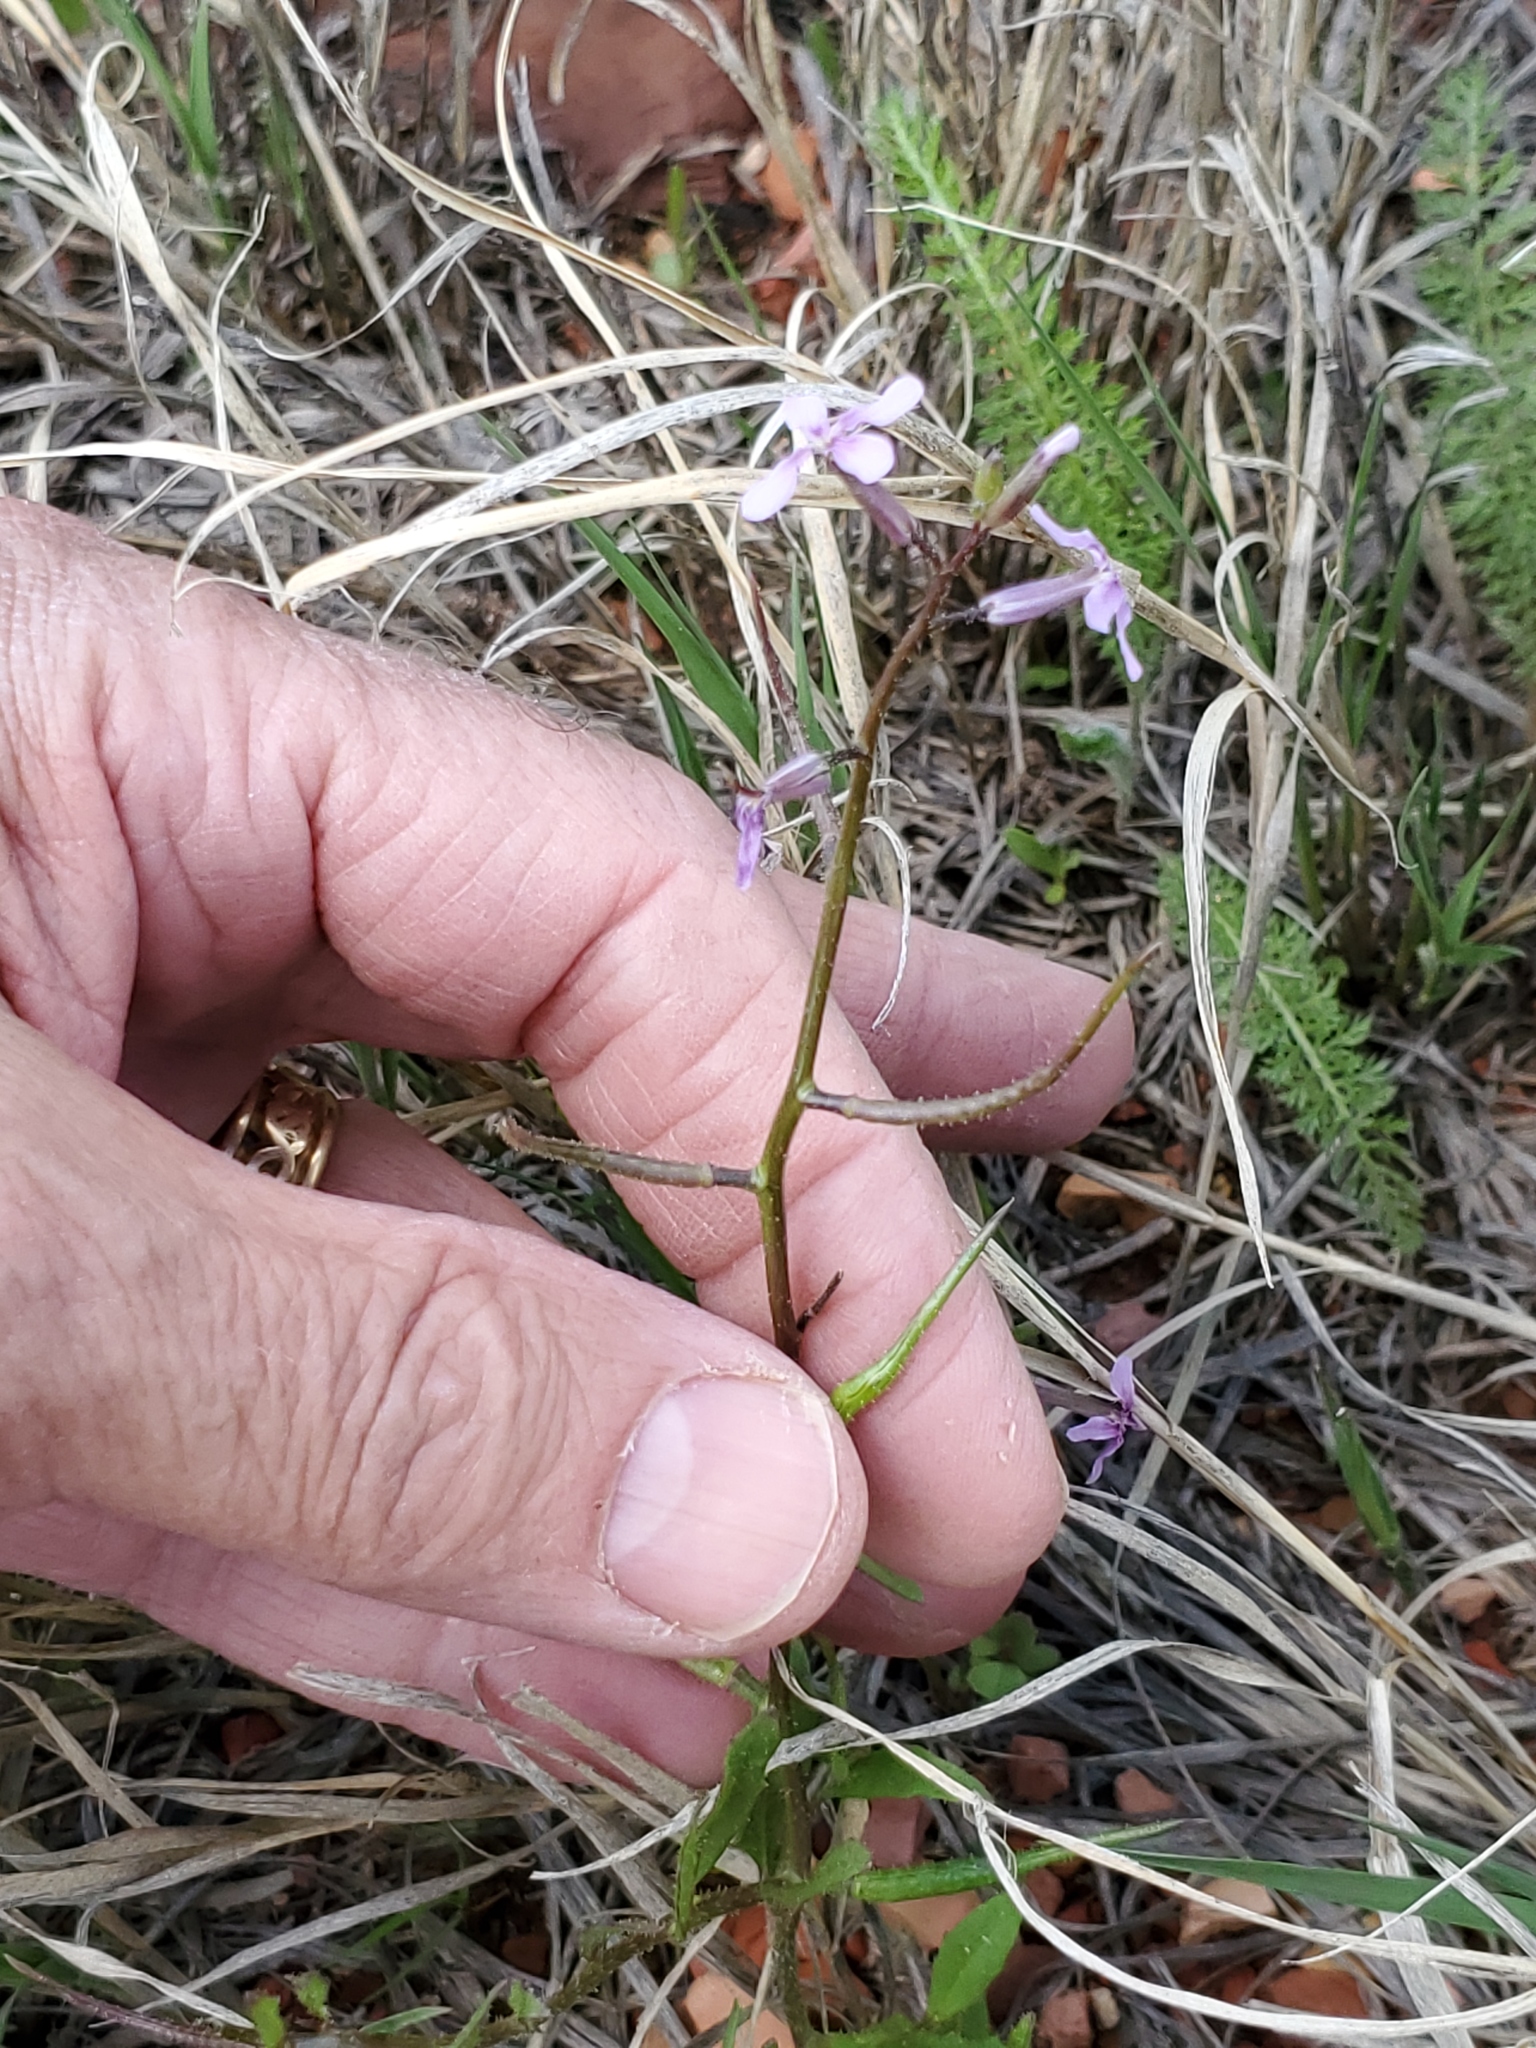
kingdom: Plantae
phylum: Tracheophyta
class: Magnoliopsida
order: Brassicales
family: Brassicaceae
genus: Chorispora
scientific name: Chorispora tenella
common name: Crossflower
